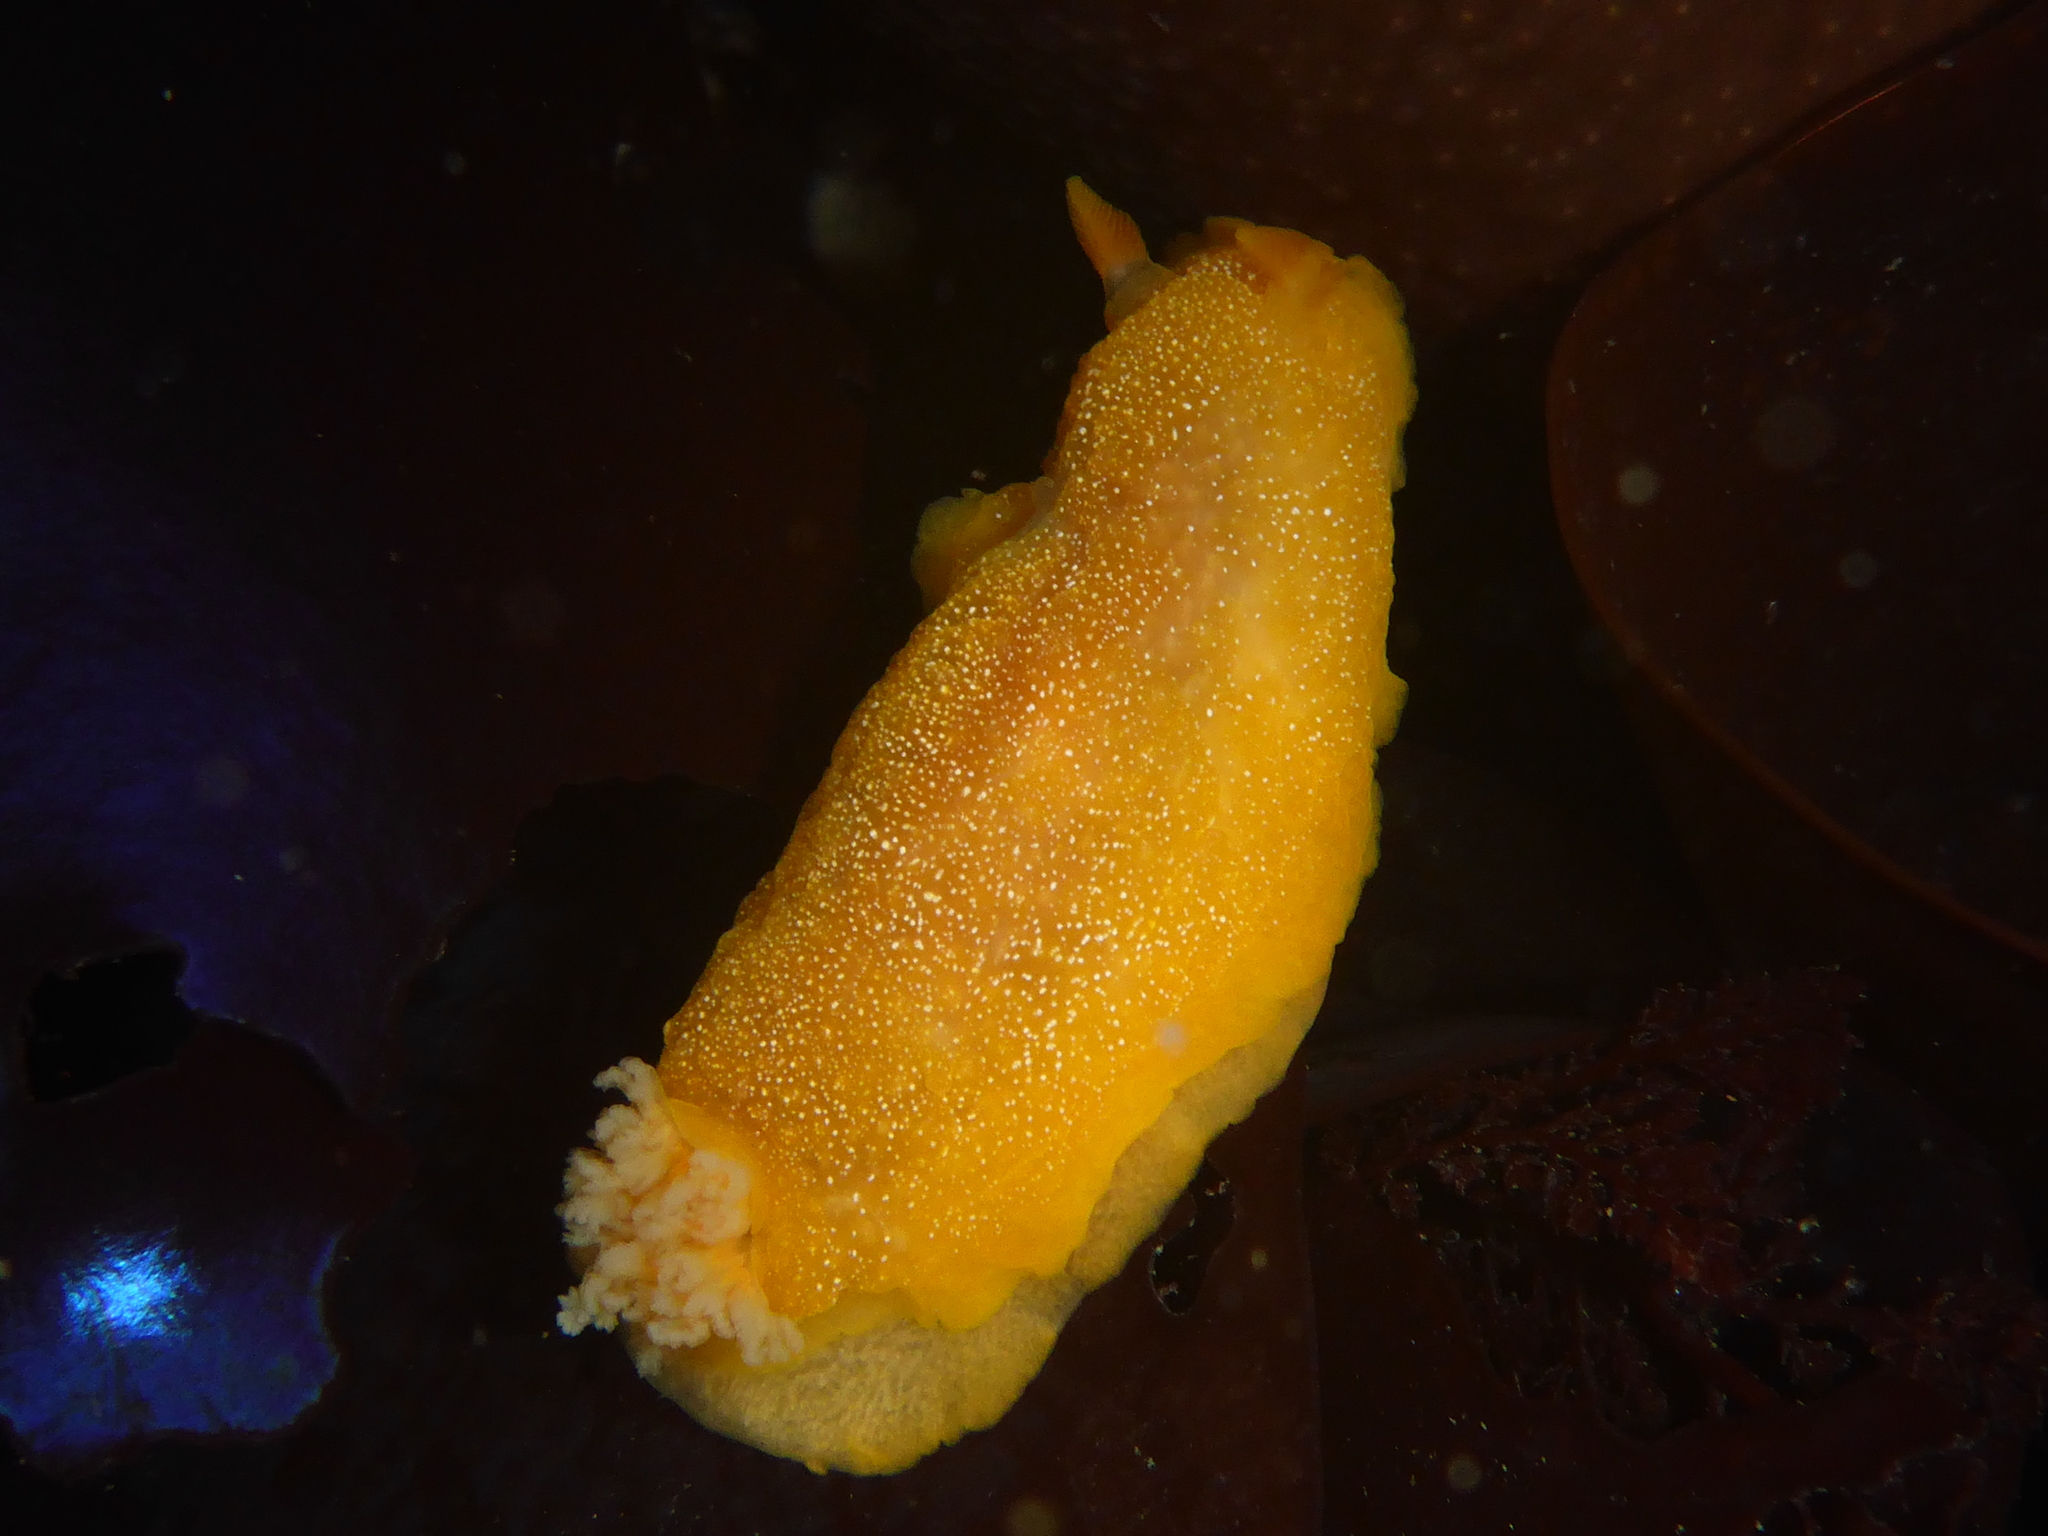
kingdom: Animalia
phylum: Mollusca
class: Gastropoda
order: Nudibranchia
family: Dendrodorididae
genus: Doriopsilla
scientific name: Doriopsilla albopunctata
